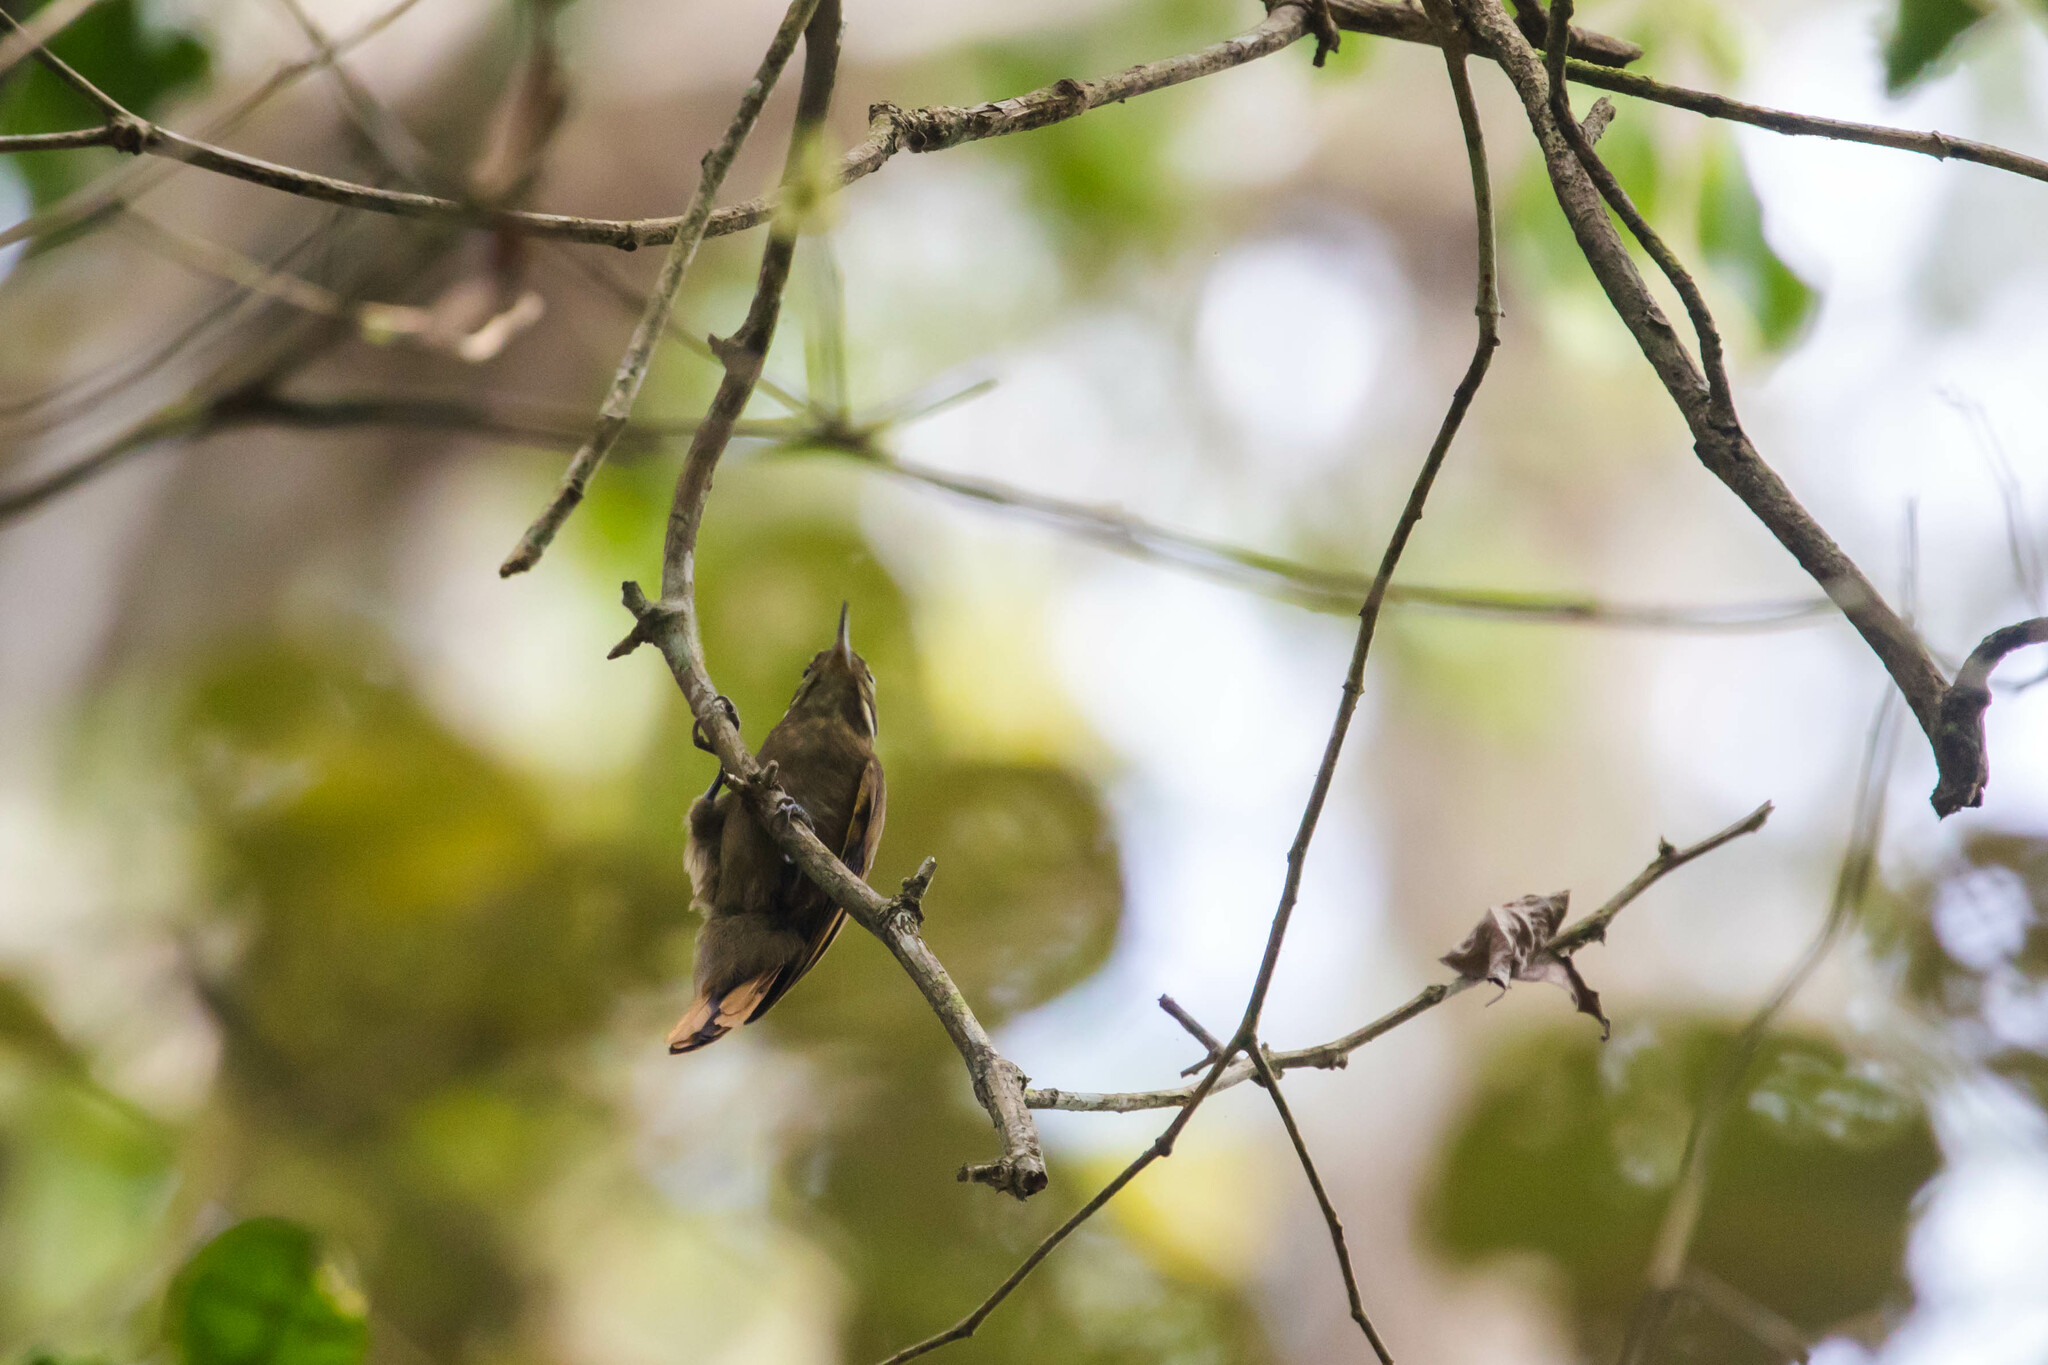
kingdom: Animalia
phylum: Chordata
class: Aves
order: Passeriformes
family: Furnariidae
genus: Xenops
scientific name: Xenops minutus
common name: Plain xenops
